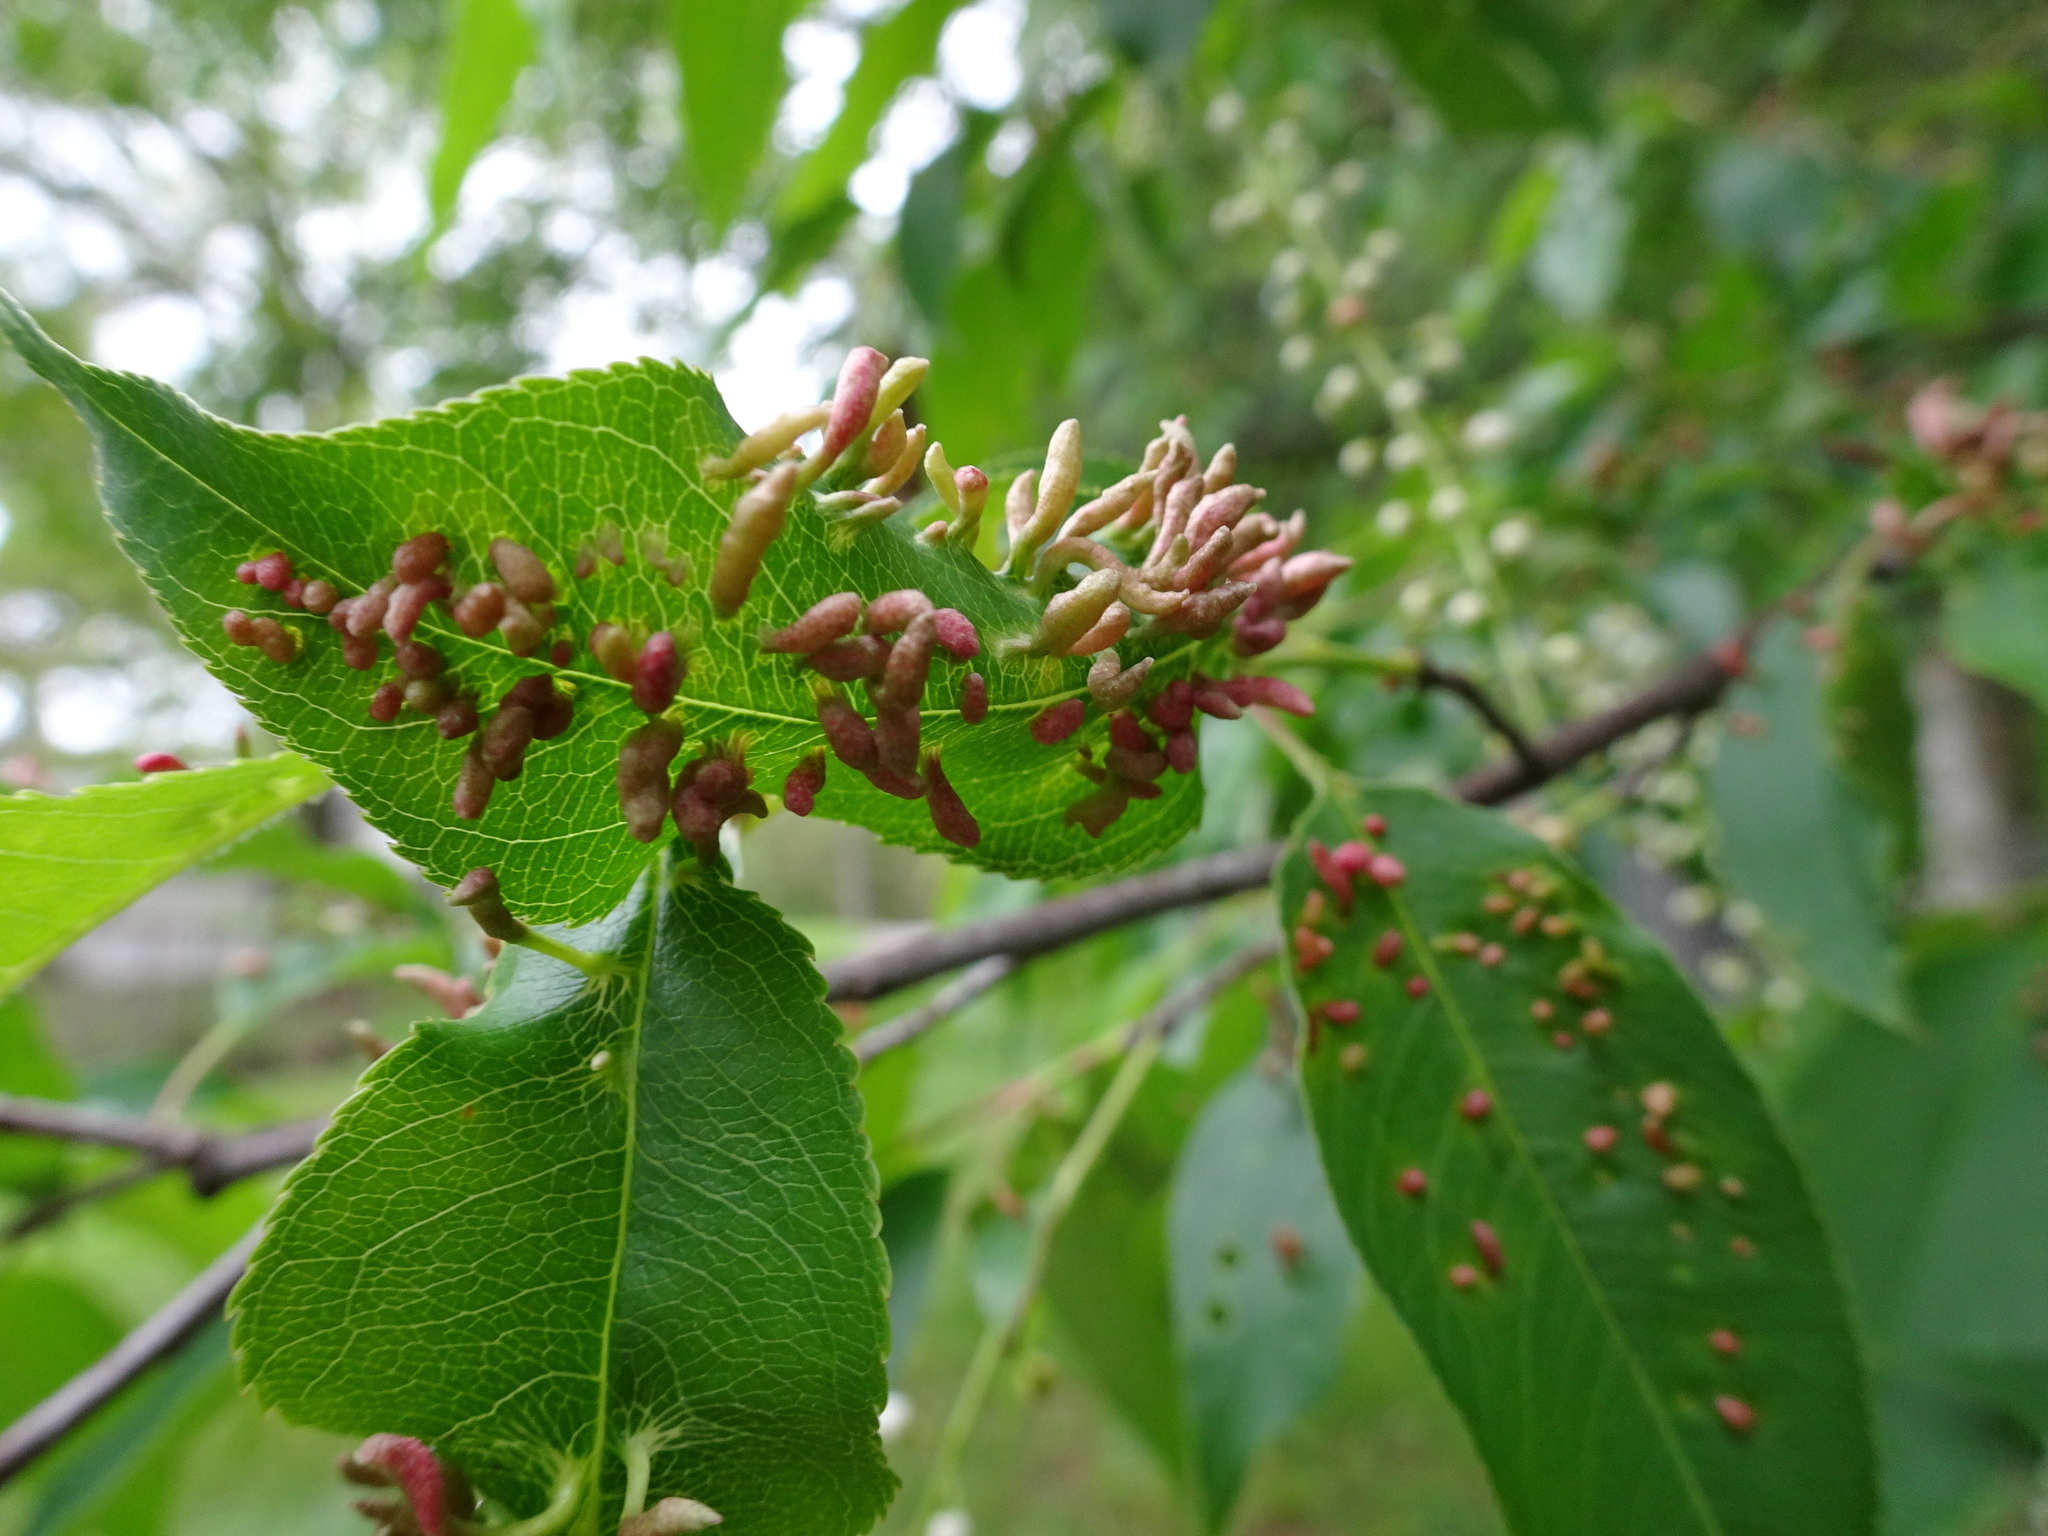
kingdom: Animalia
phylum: Arthropoda
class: Arachnida
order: Trombidiformes
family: Eriophyidae
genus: Eriophyes
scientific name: Eriophyes
